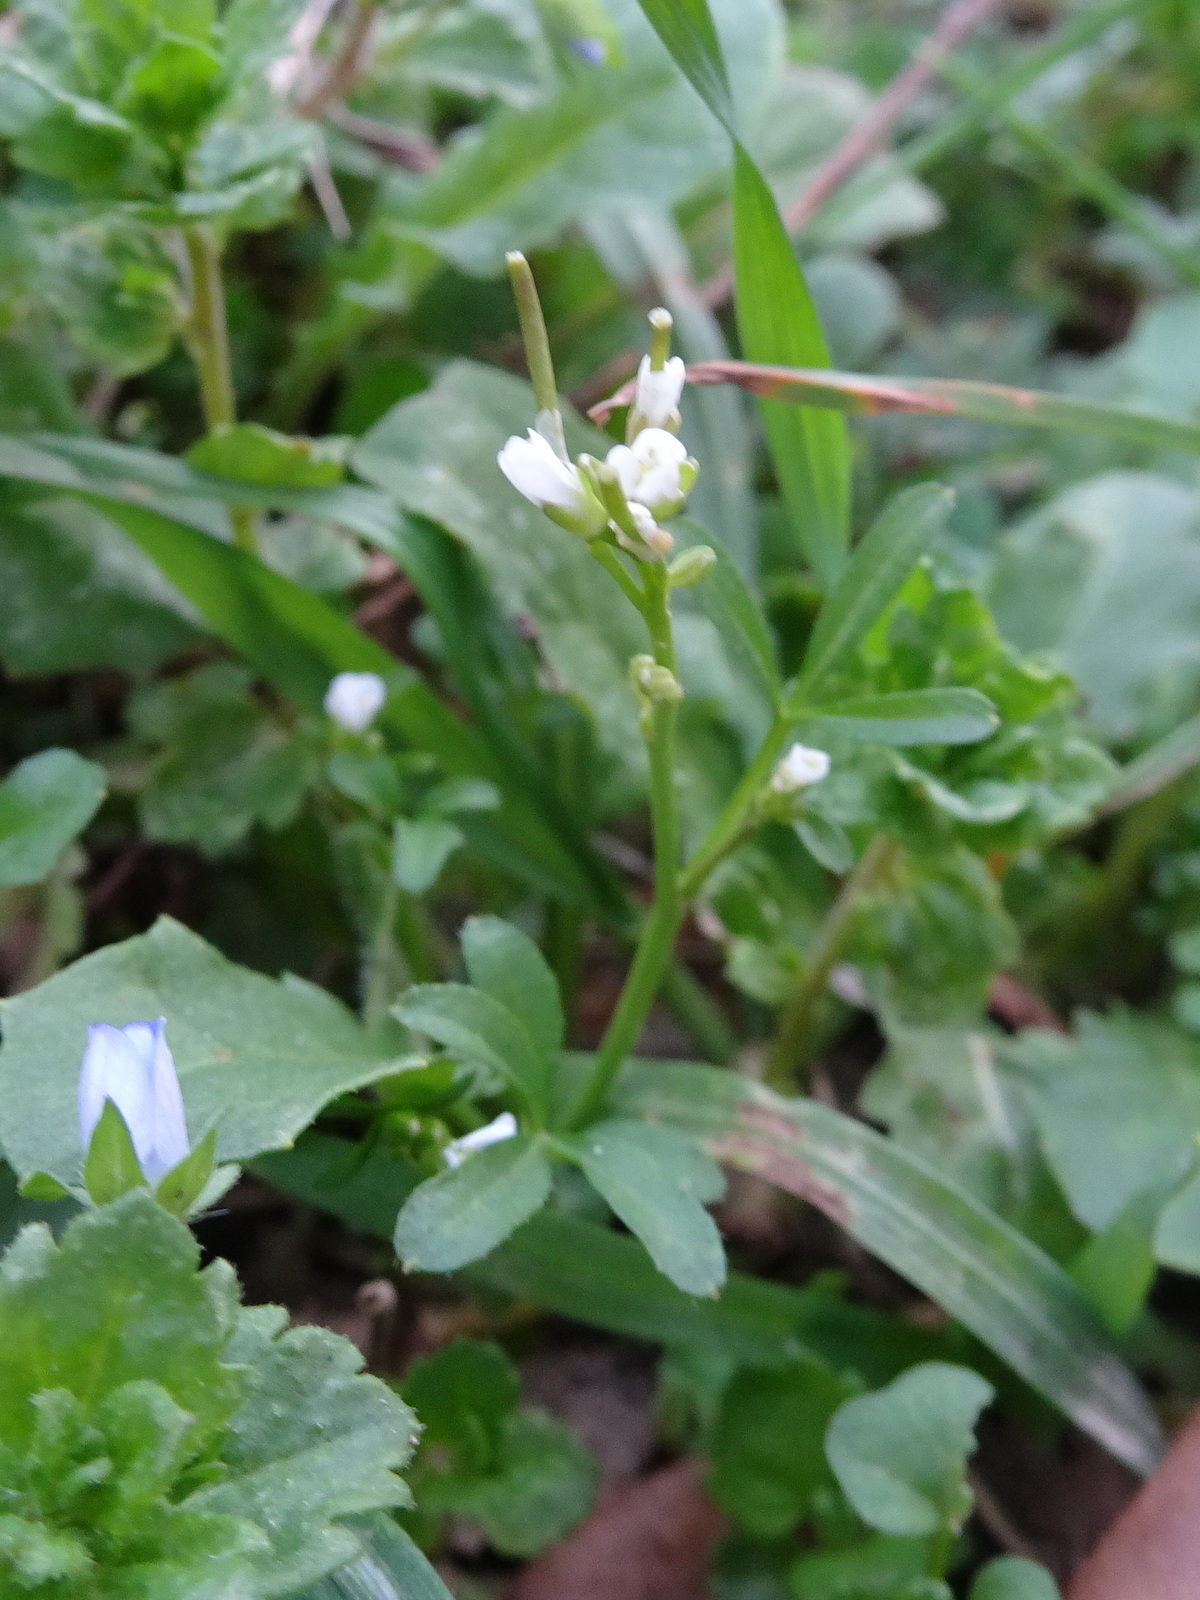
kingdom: Plantae
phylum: Tracheophyta
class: Magnoliopsida
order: Brassicales
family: Brassicaceae
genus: Cardamine
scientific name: Cardamine hirsuta
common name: Hairy bittercress
